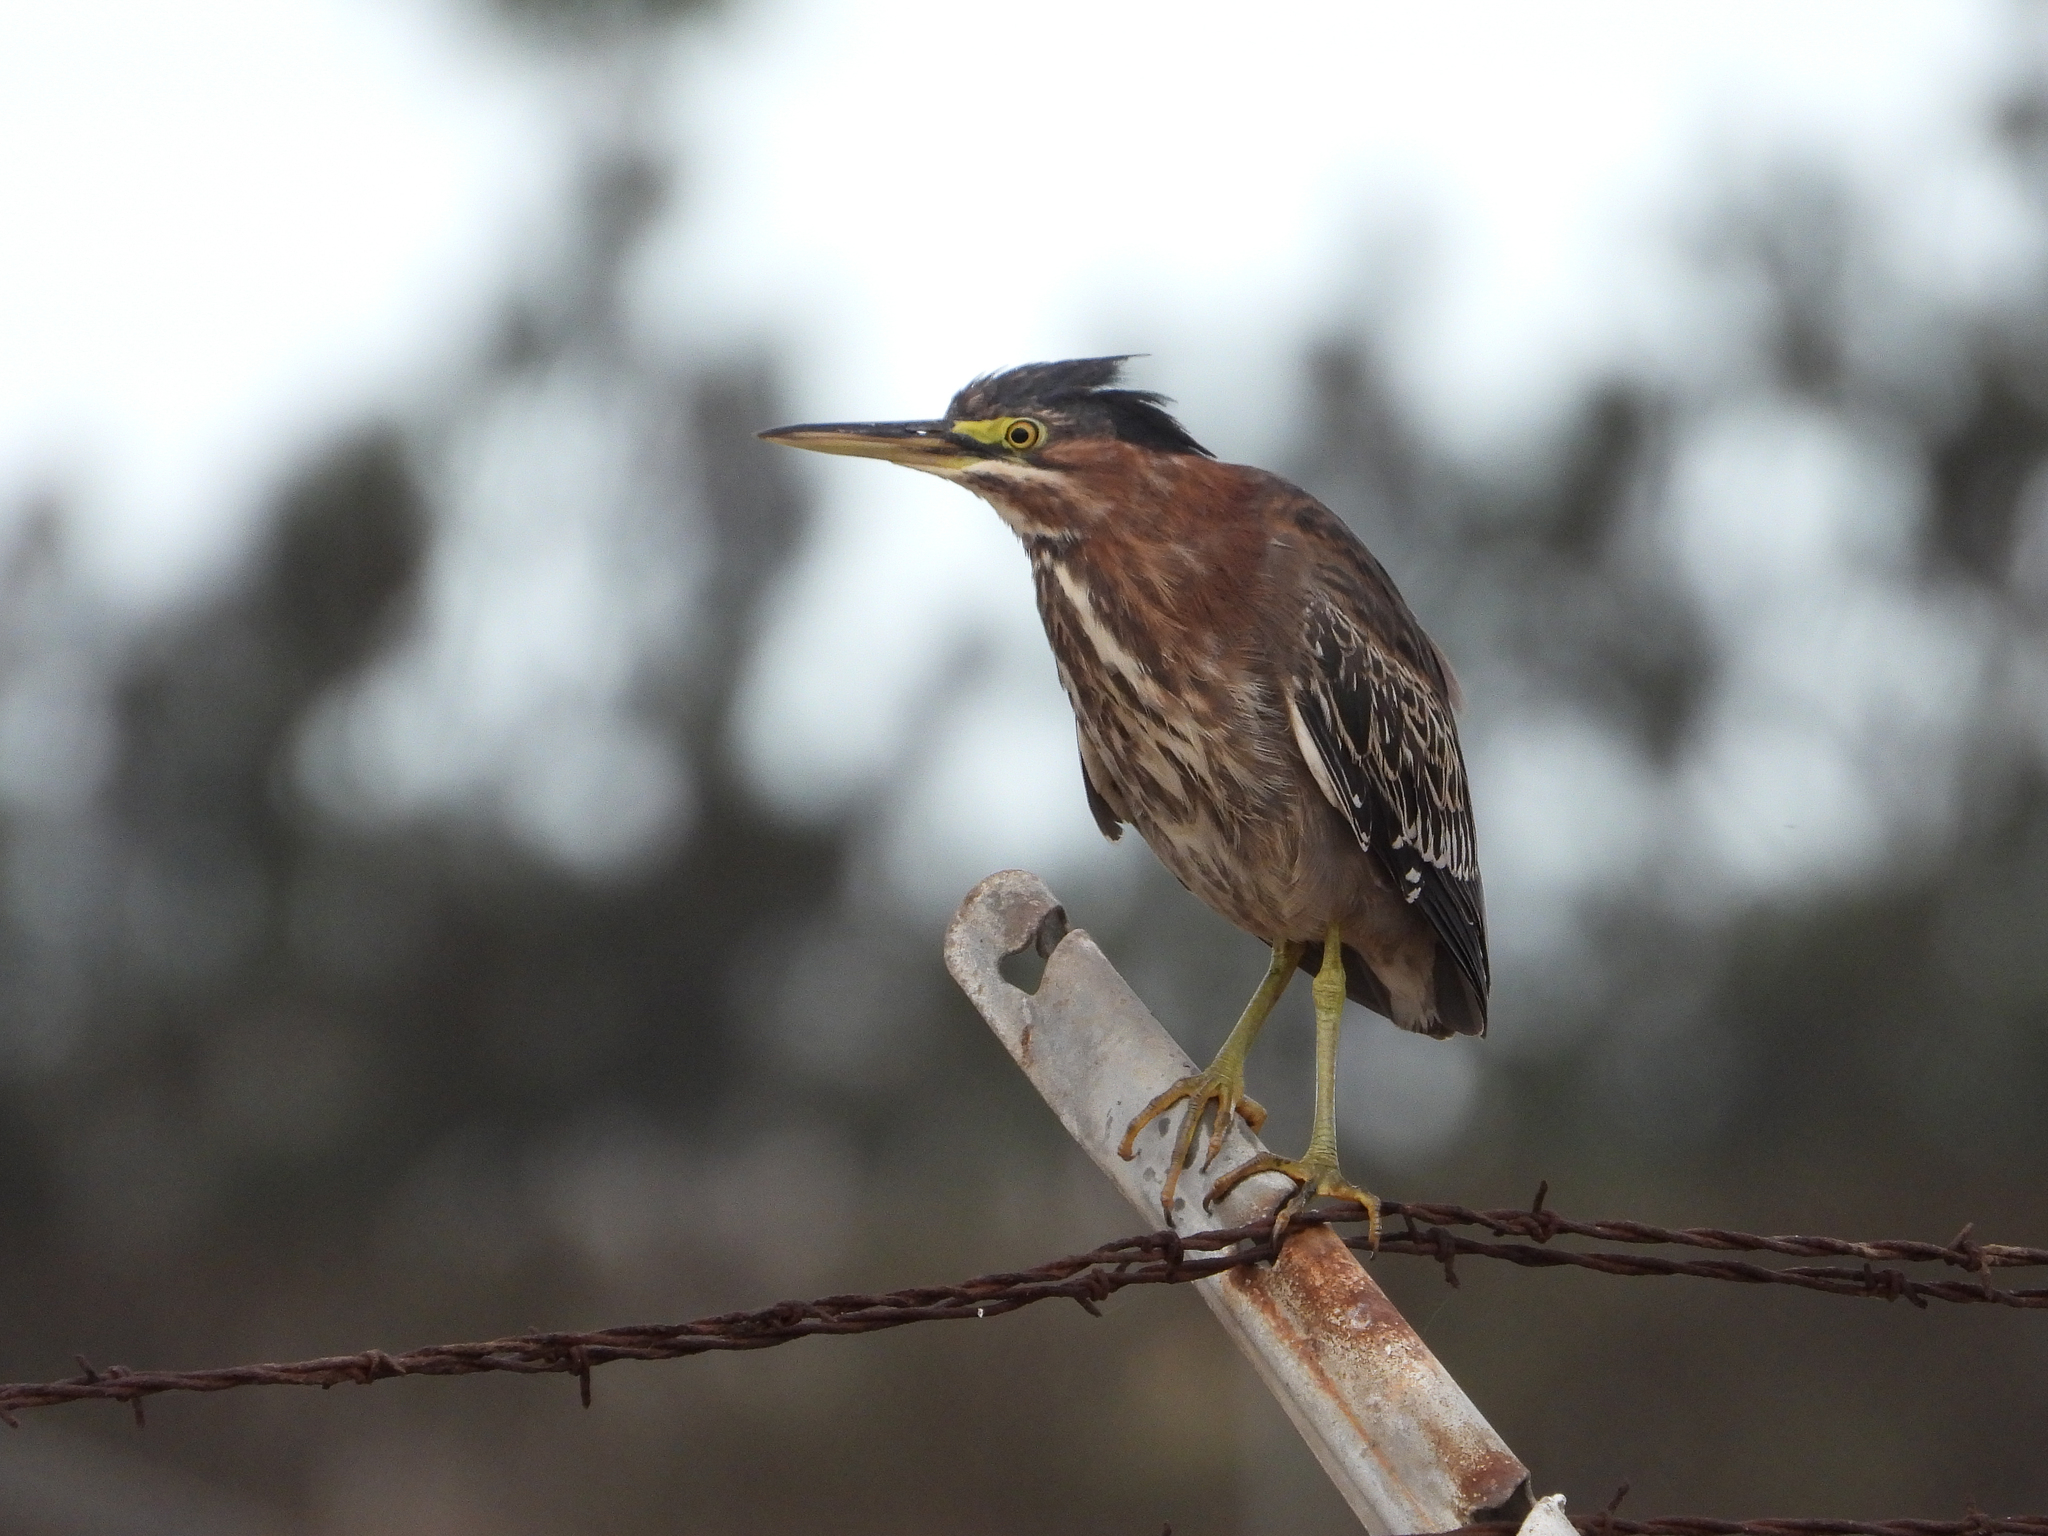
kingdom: Animalia
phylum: Chordata
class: Aves
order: Pelecaniformes
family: Ardeidae
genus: Butorides
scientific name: Butorides virescens
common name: Green heron
